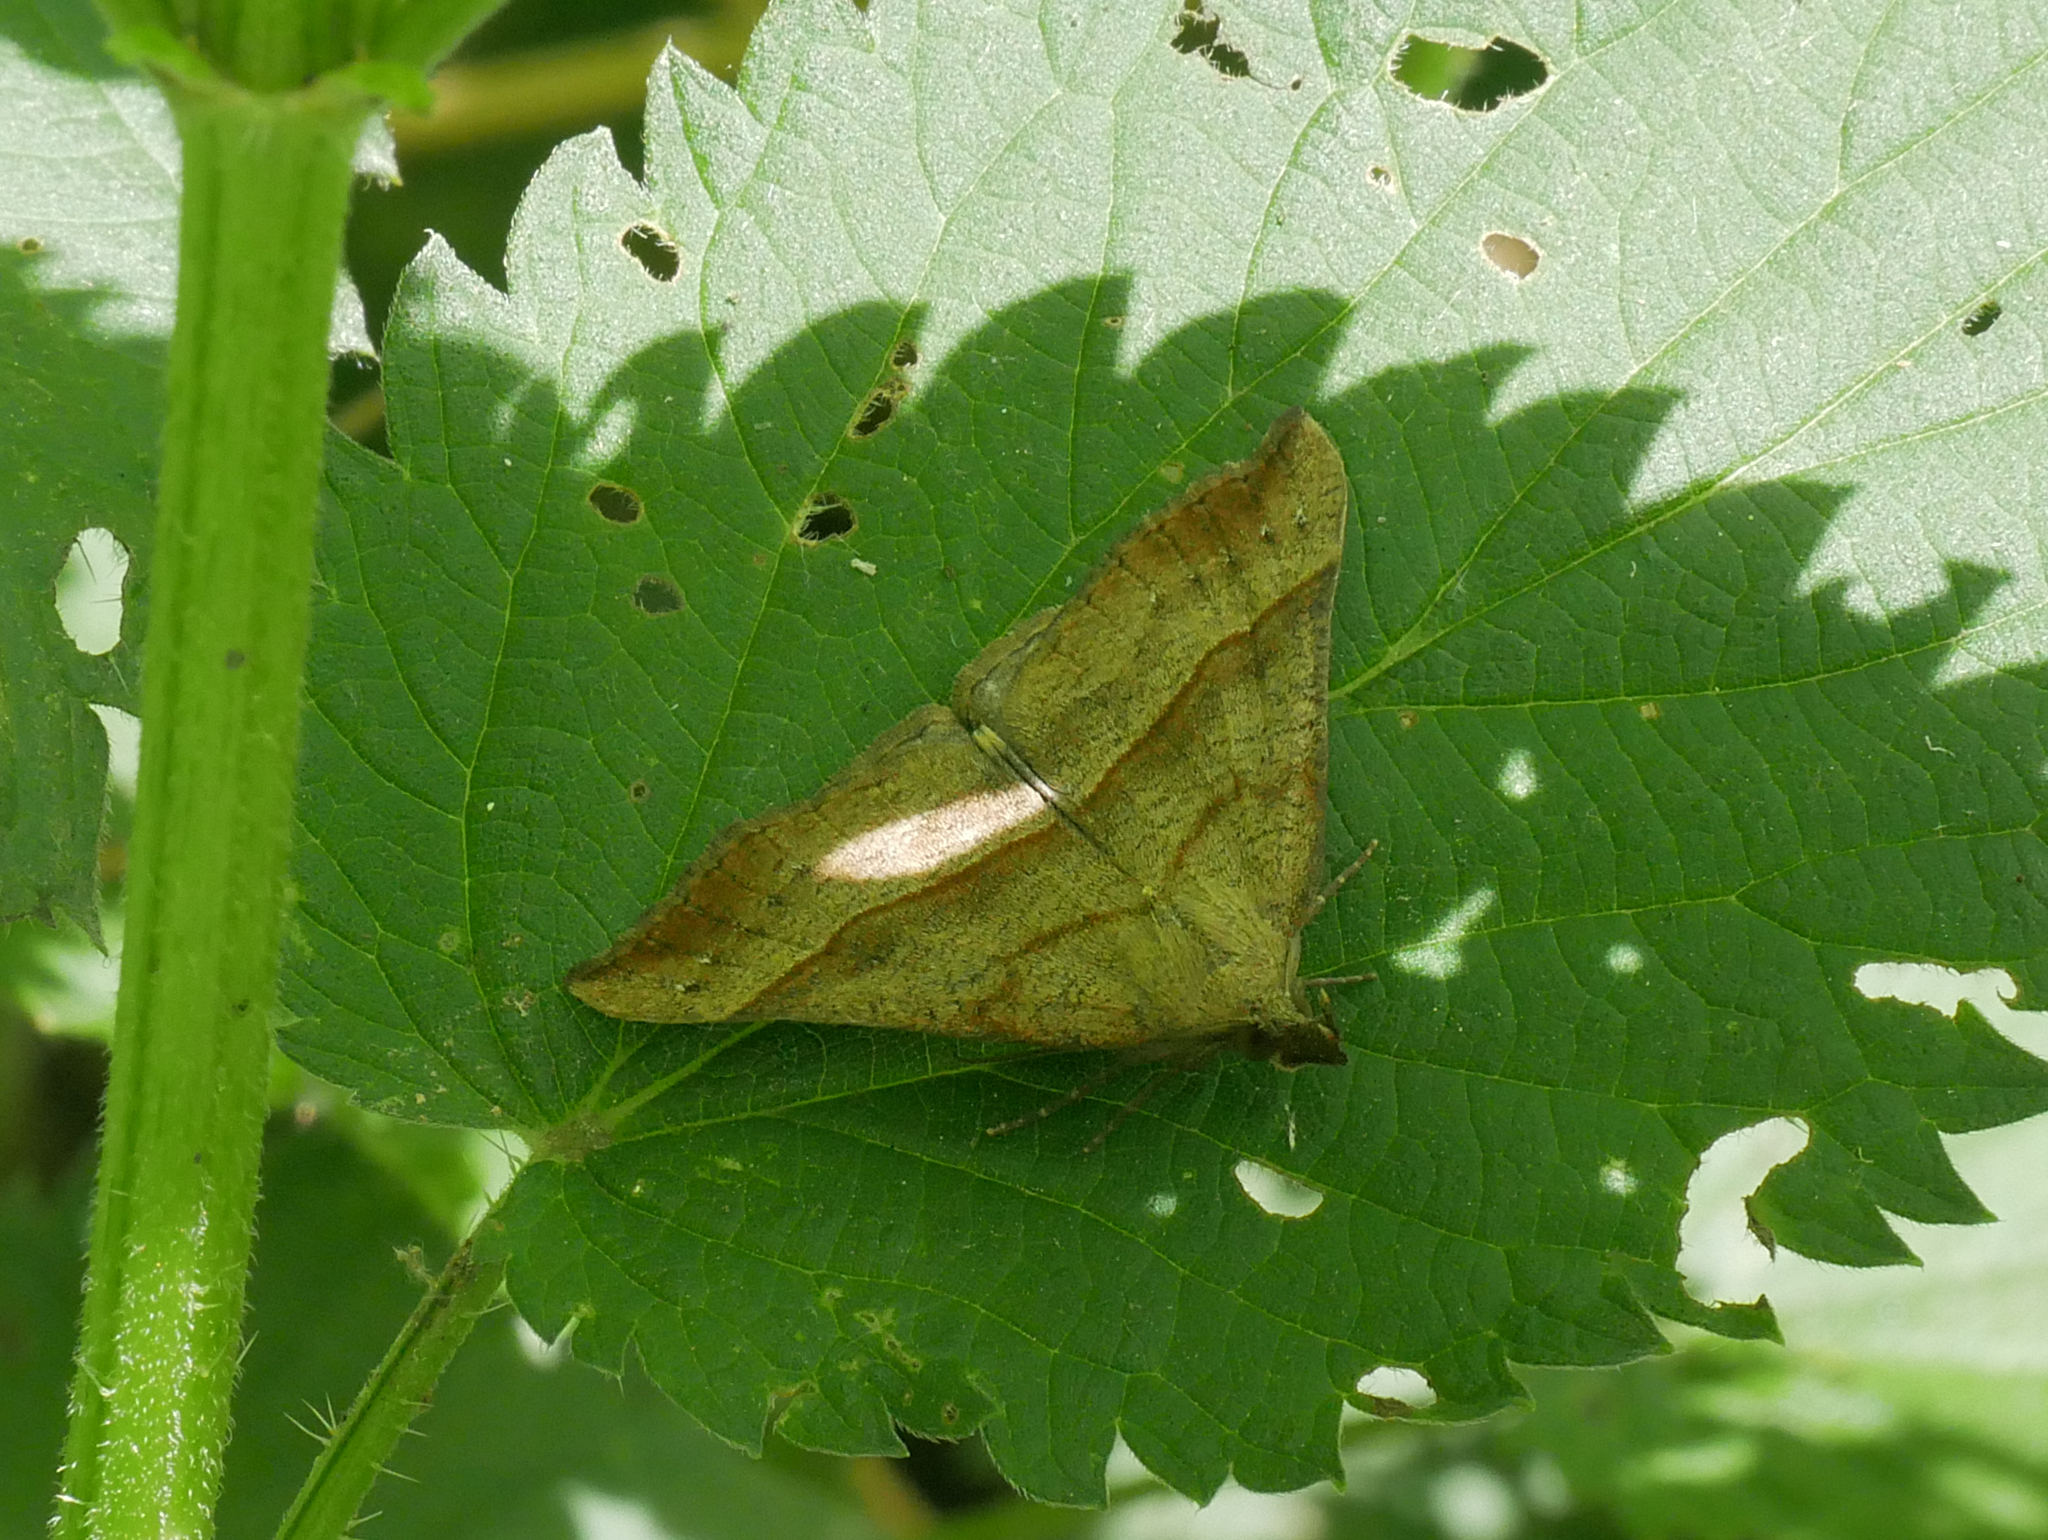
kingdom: Animalia
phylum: Arthropoda
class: Insecta
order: Lepidoptera
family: Erebidae
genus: Hypena
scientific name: Hypena proboscidalis
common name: Snout
